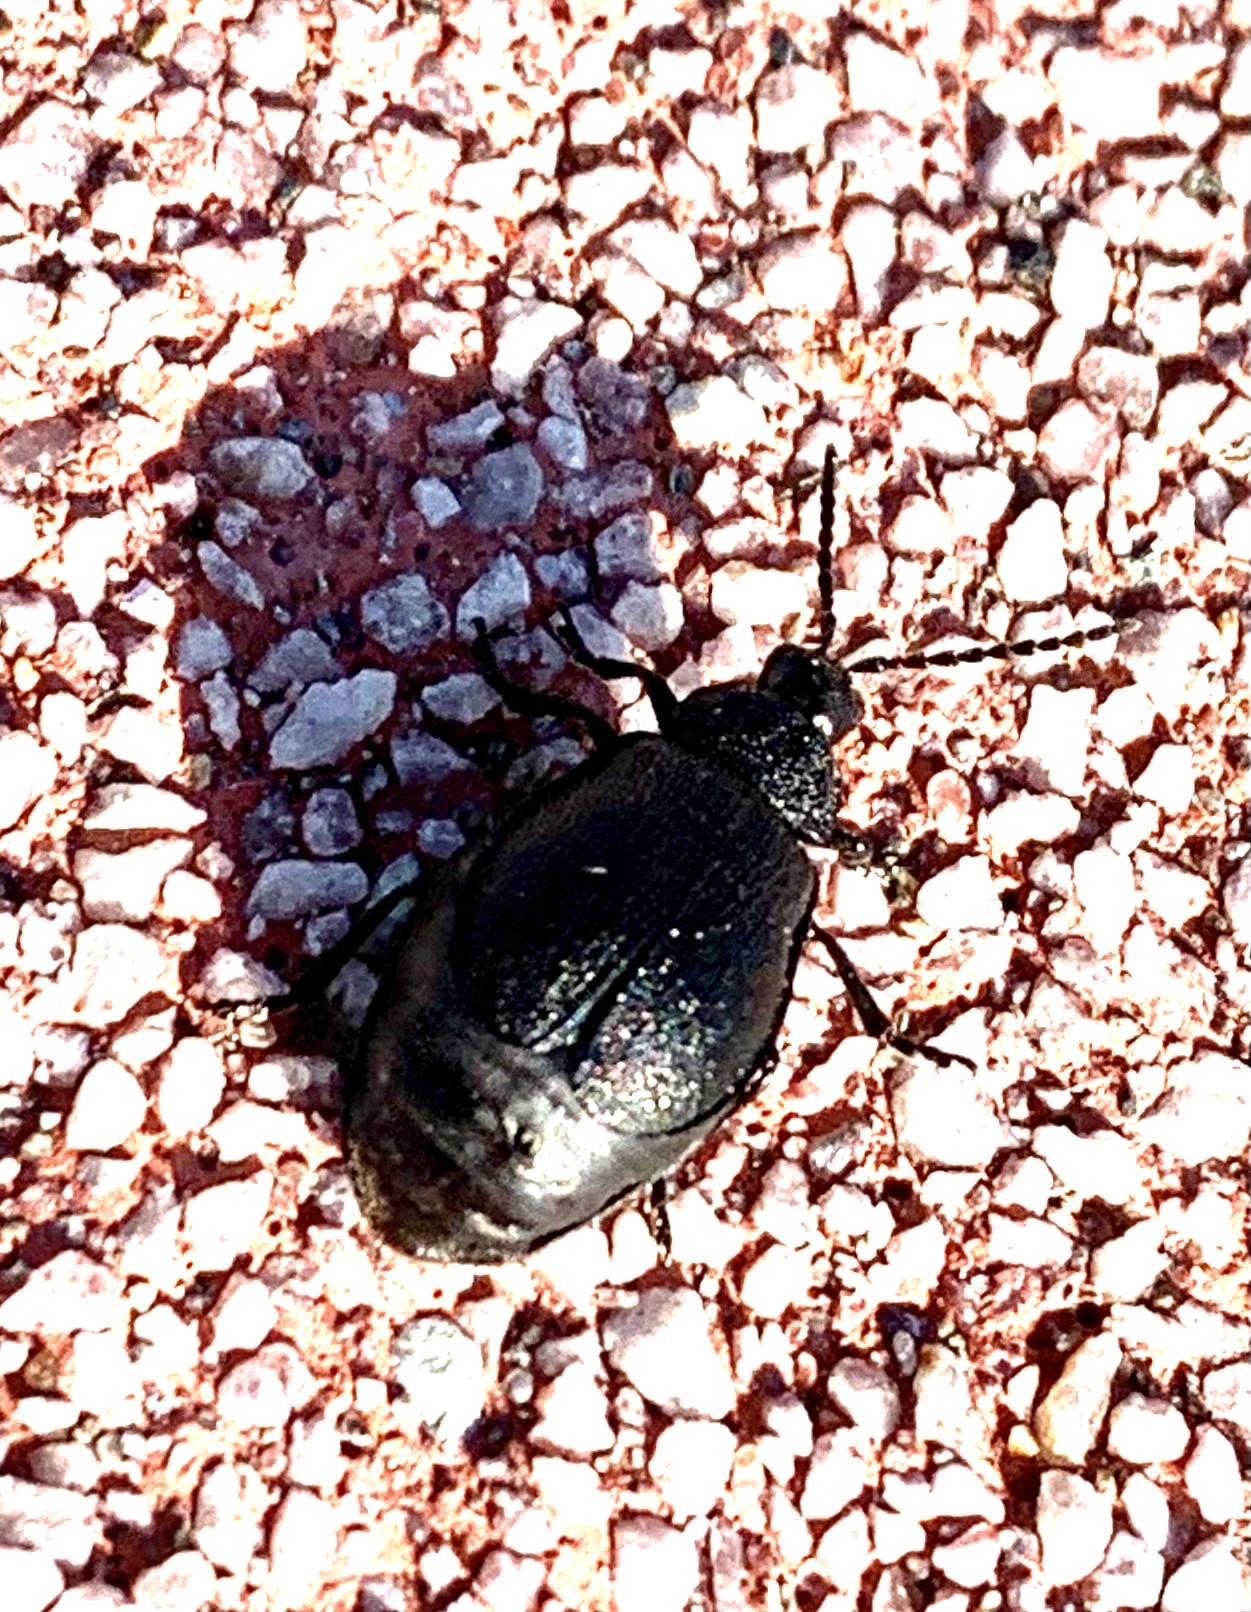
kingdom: Animalia
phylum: Arthropoda
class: Insecta
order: Coleoptera
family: Chrysomelidae
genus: Galeruca
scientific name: Galeruca tanaceti
